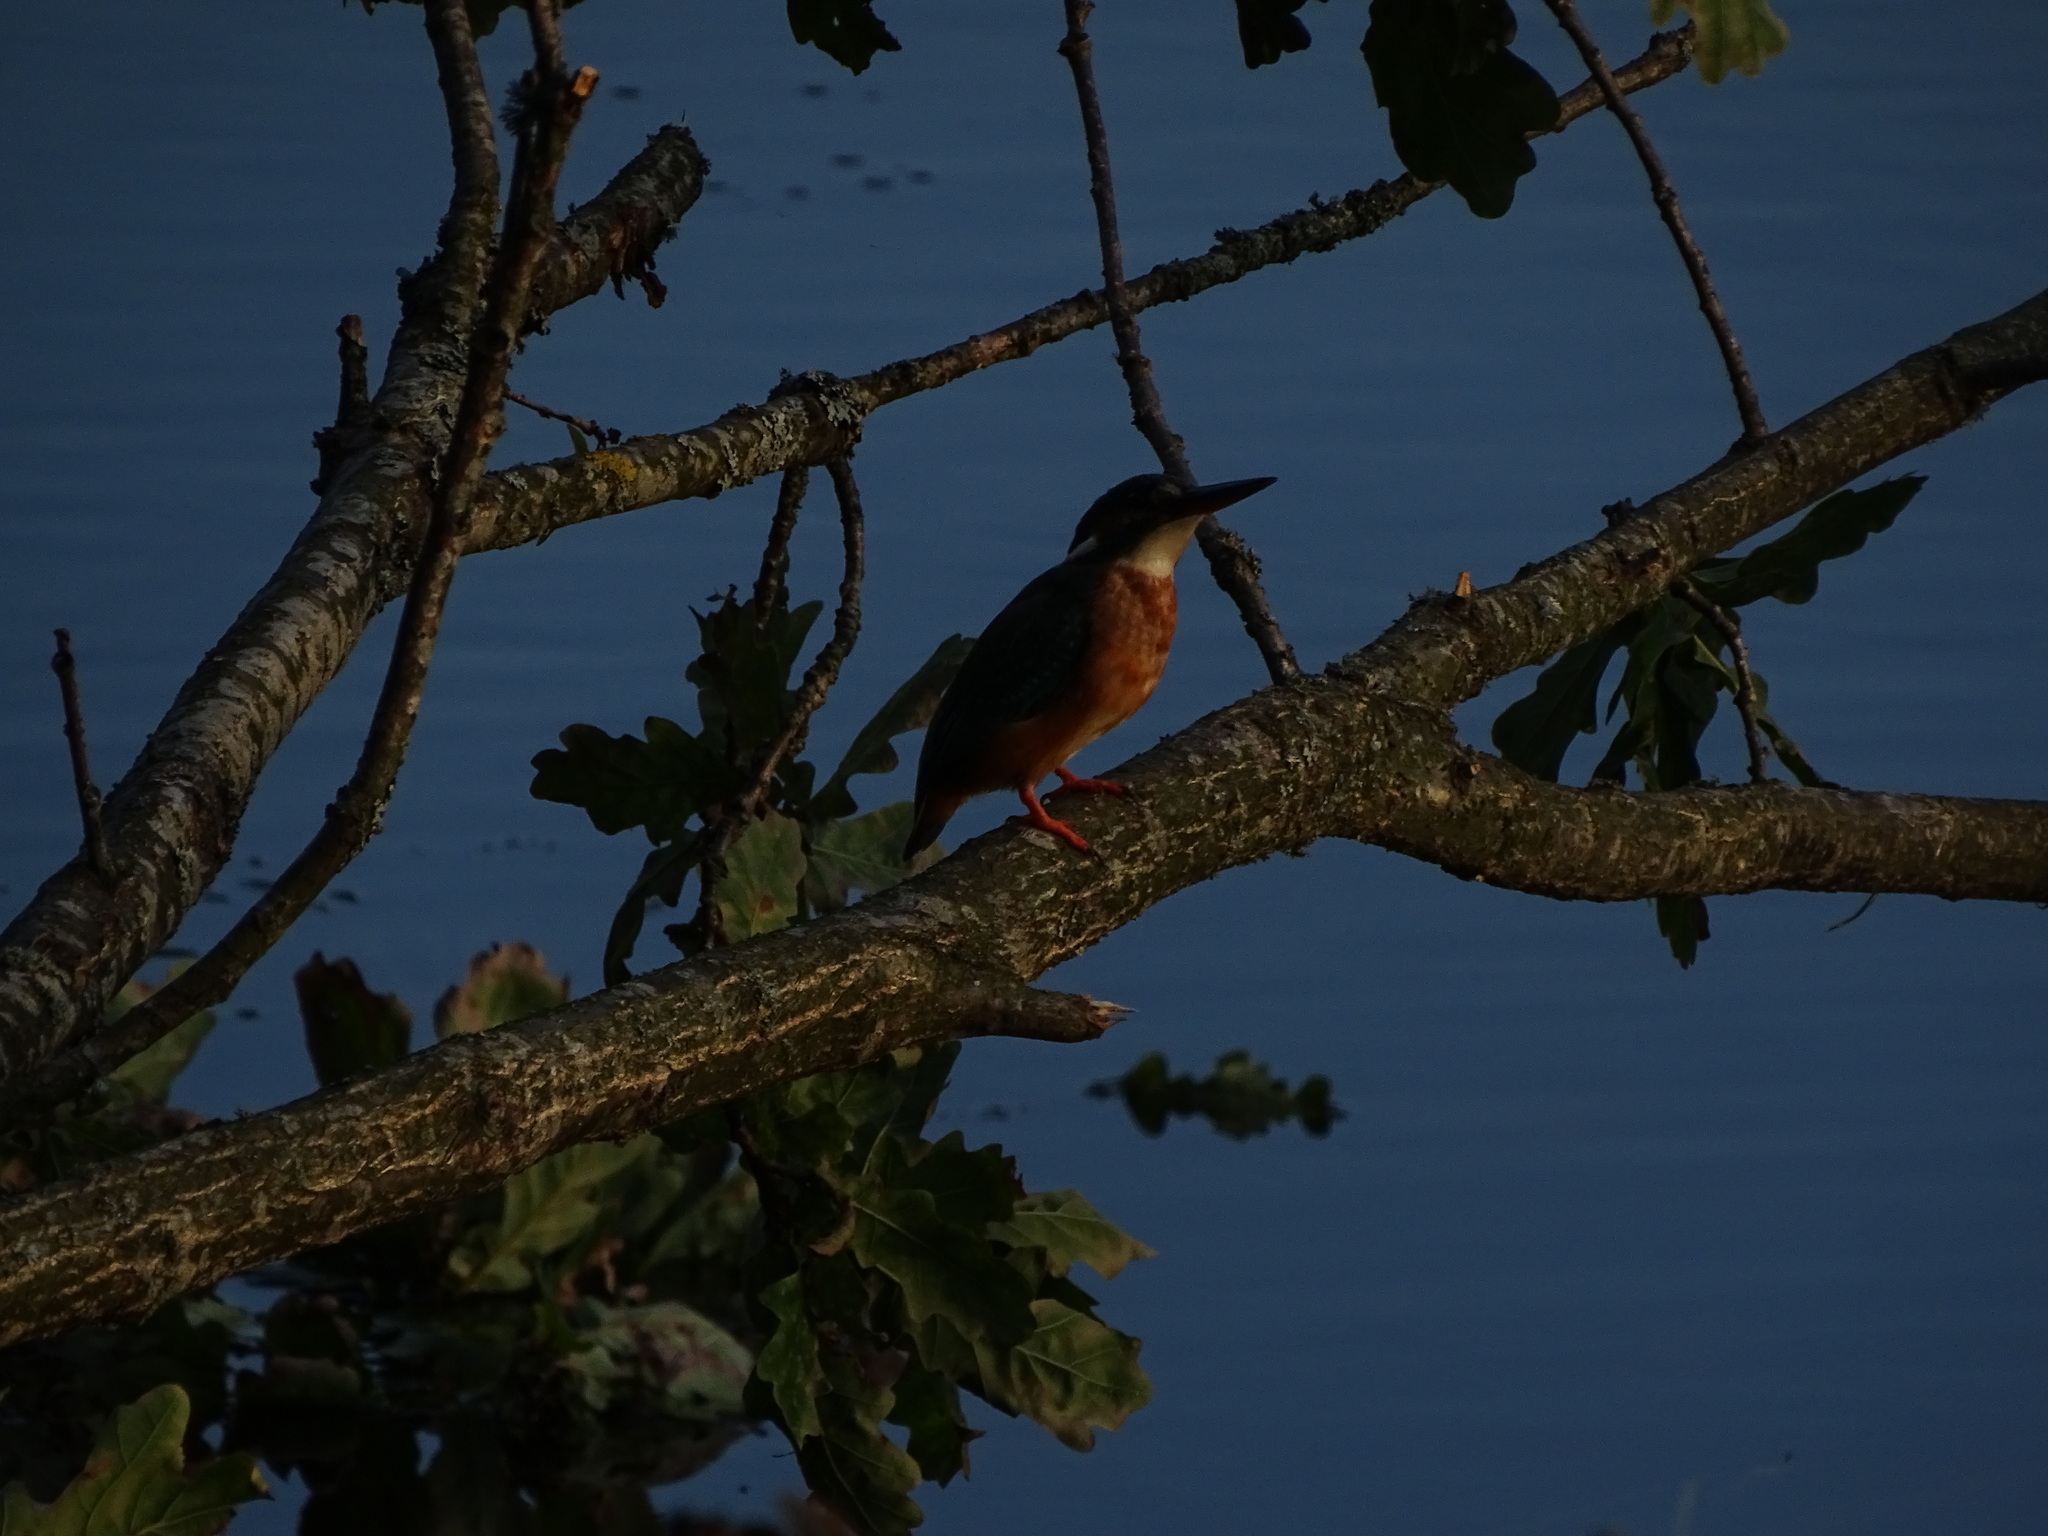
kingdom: Animalia
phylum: Chordata
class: Aves
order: Coraciiformes
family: Alcedinidae
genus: Alcedo
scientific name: Alcedo atthis
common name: Common kingfisher
